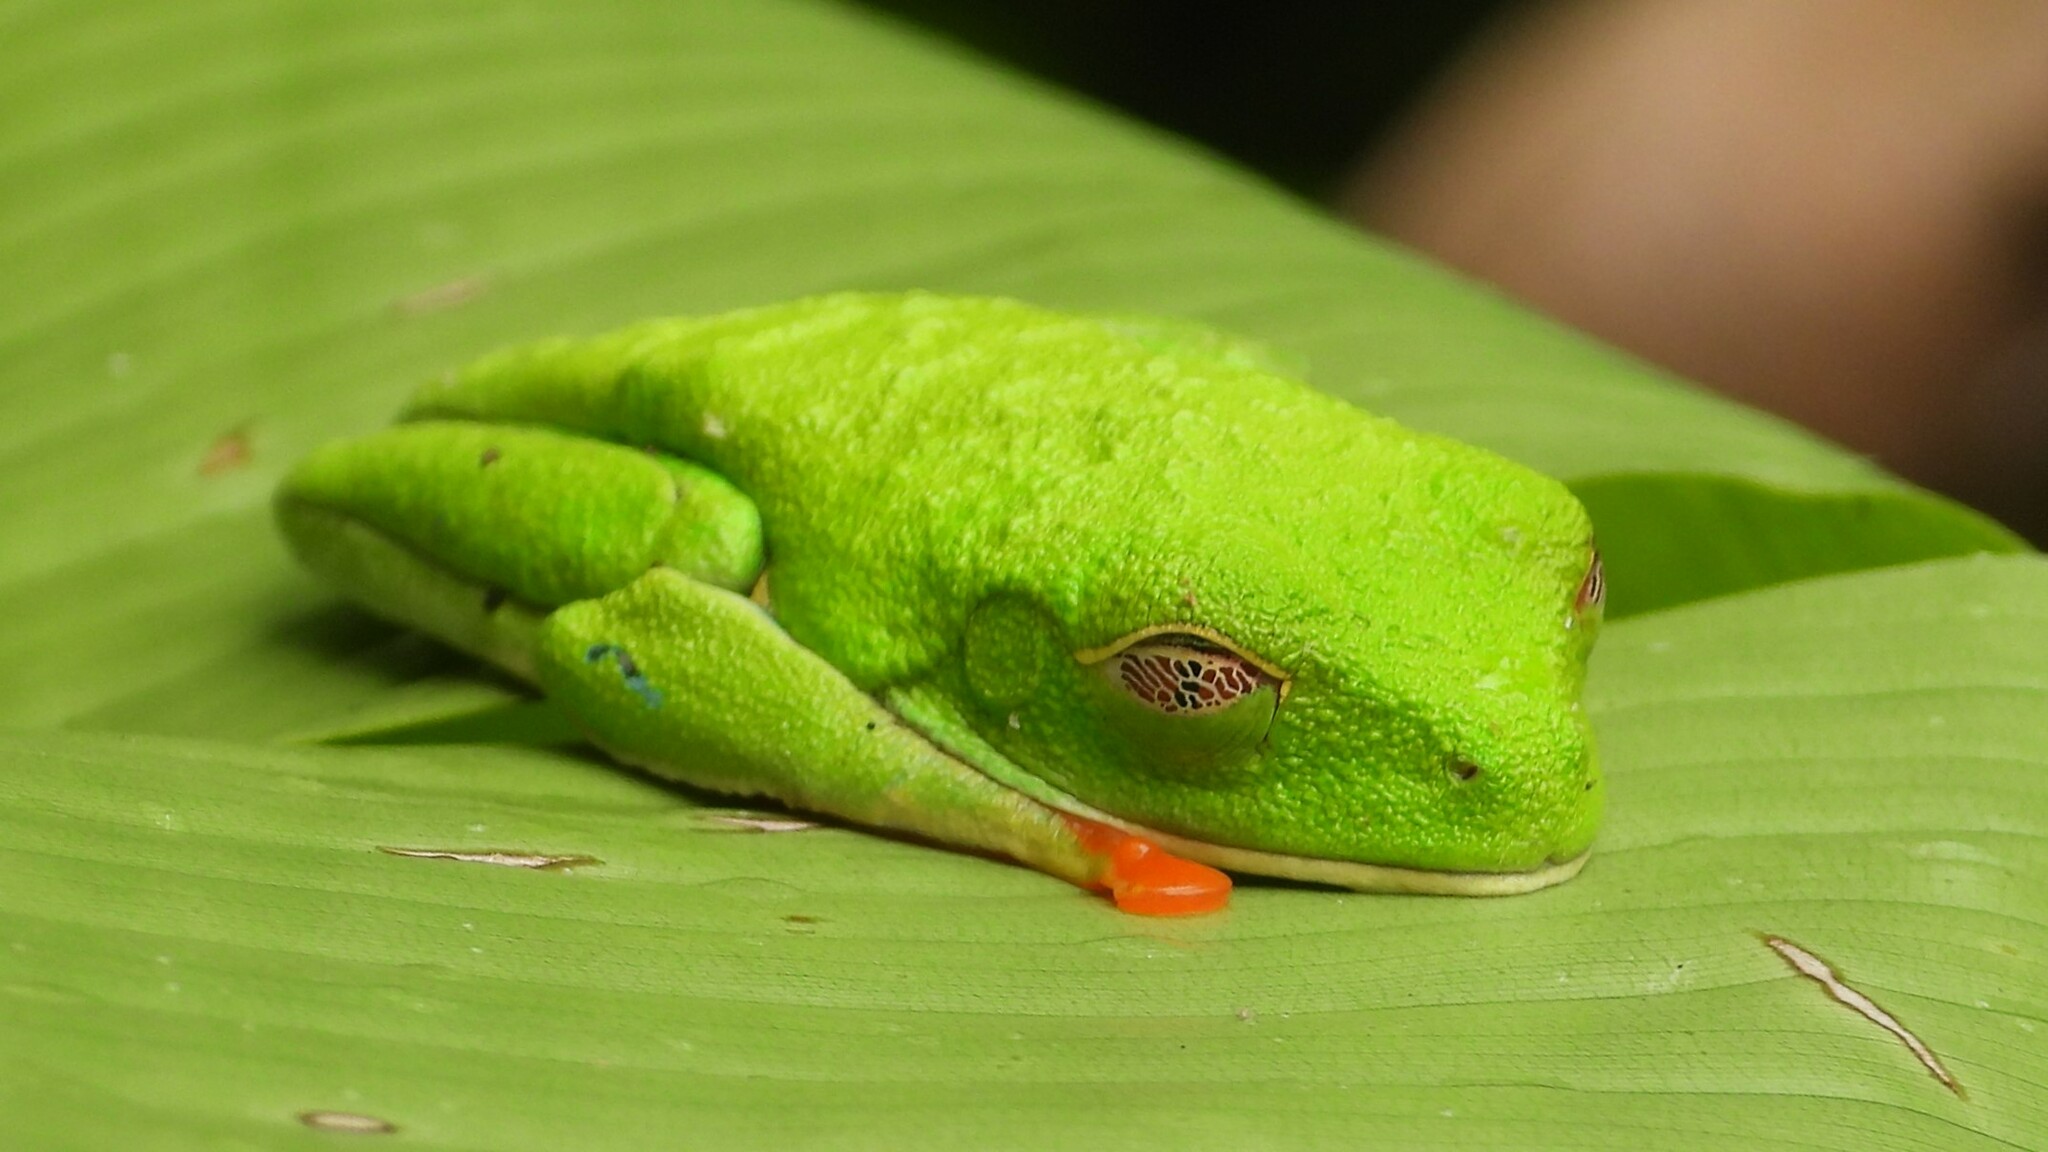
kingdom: Animalia
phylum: Chordata
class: Amphibia
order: Anura
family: Phyllomedusidae
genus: Agalychnis
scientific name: Agalychnis callidryas
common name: Red-eyed treefrog
